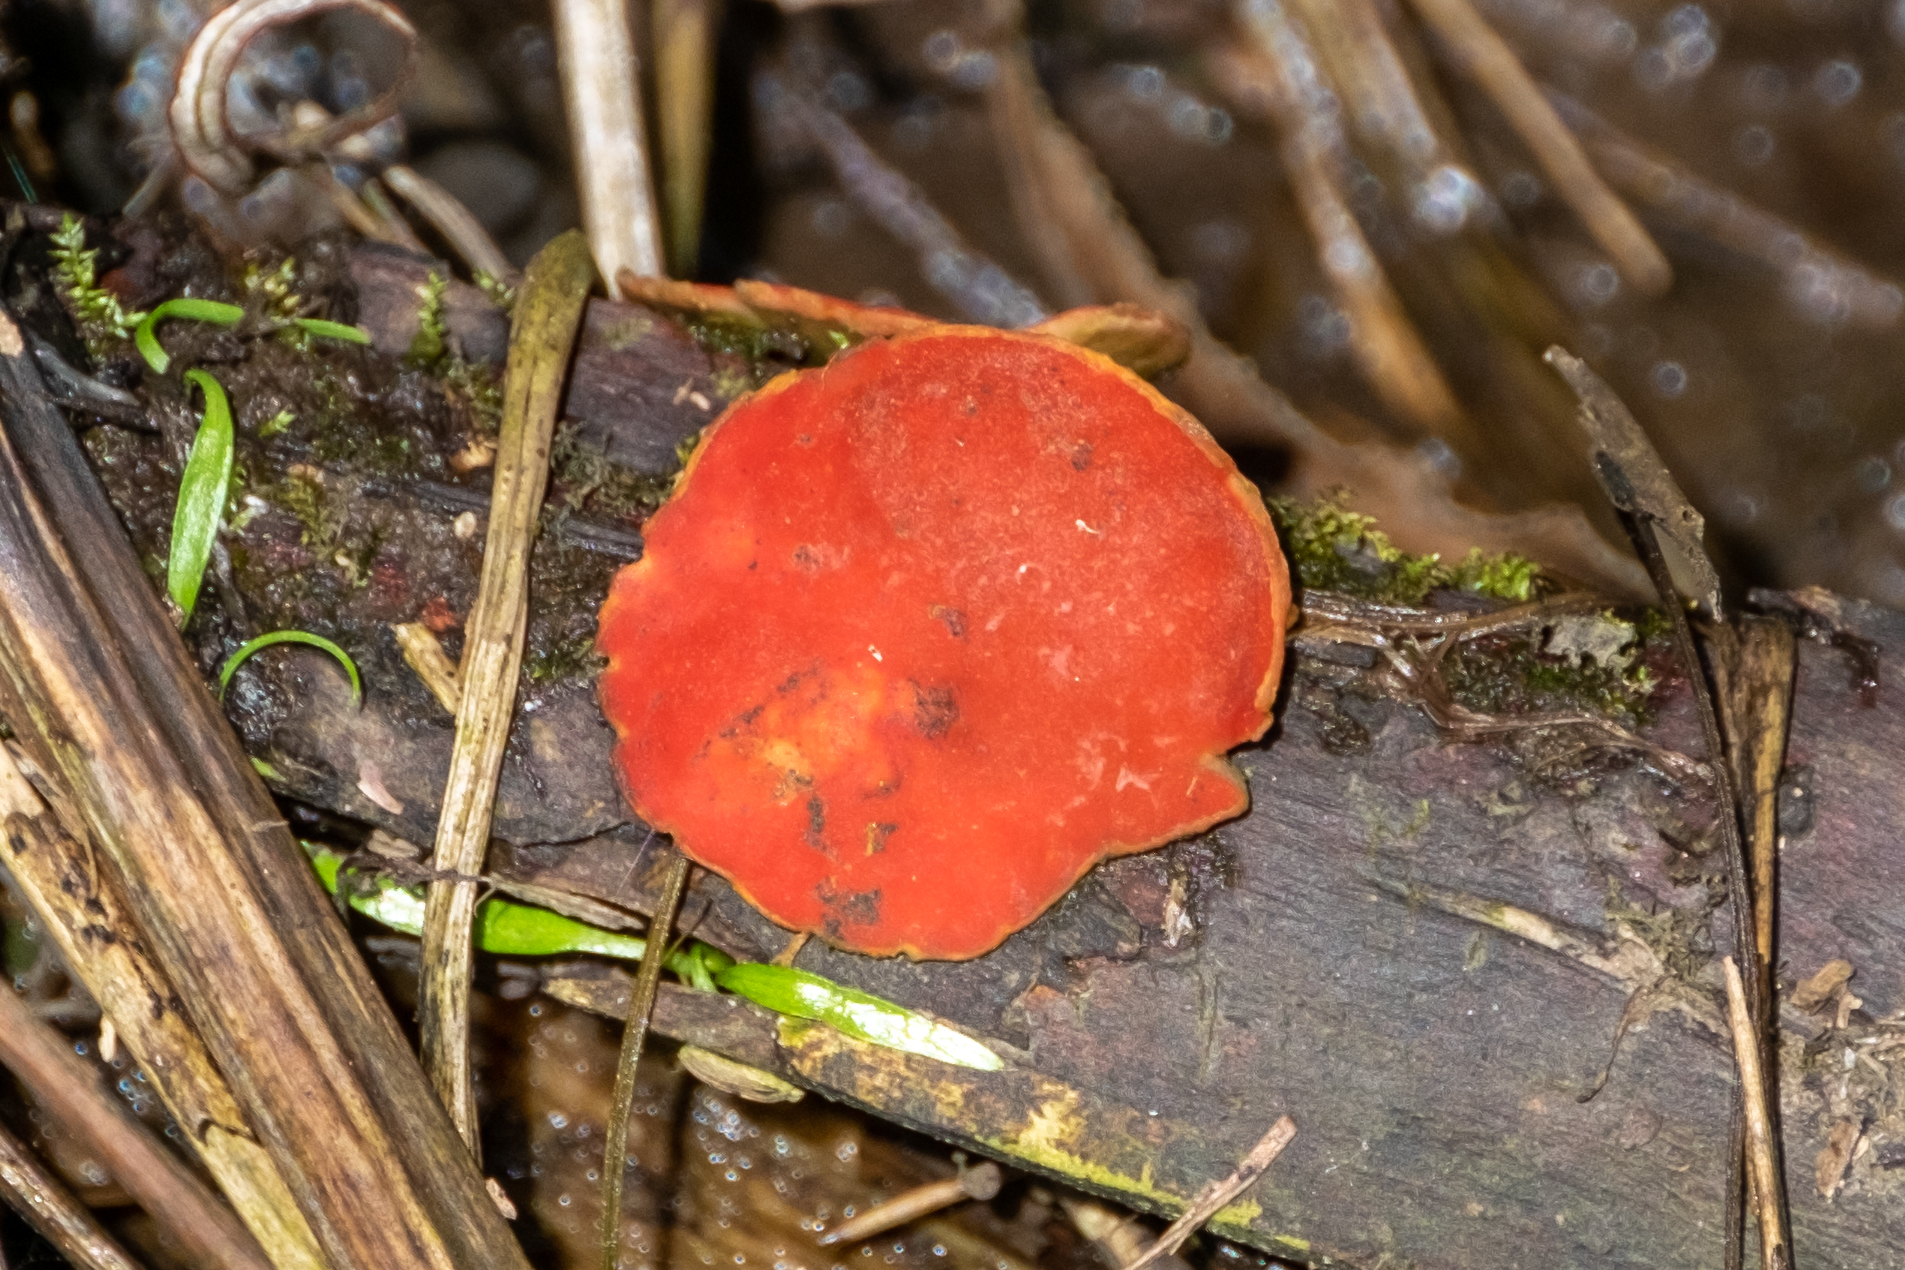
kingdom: Fungi
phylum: Ascomycota
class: Pezizomycetes
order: Pezizales
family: Sarcoscyphaceae
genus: Sarcoscypha
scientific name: Sarcoscypha
